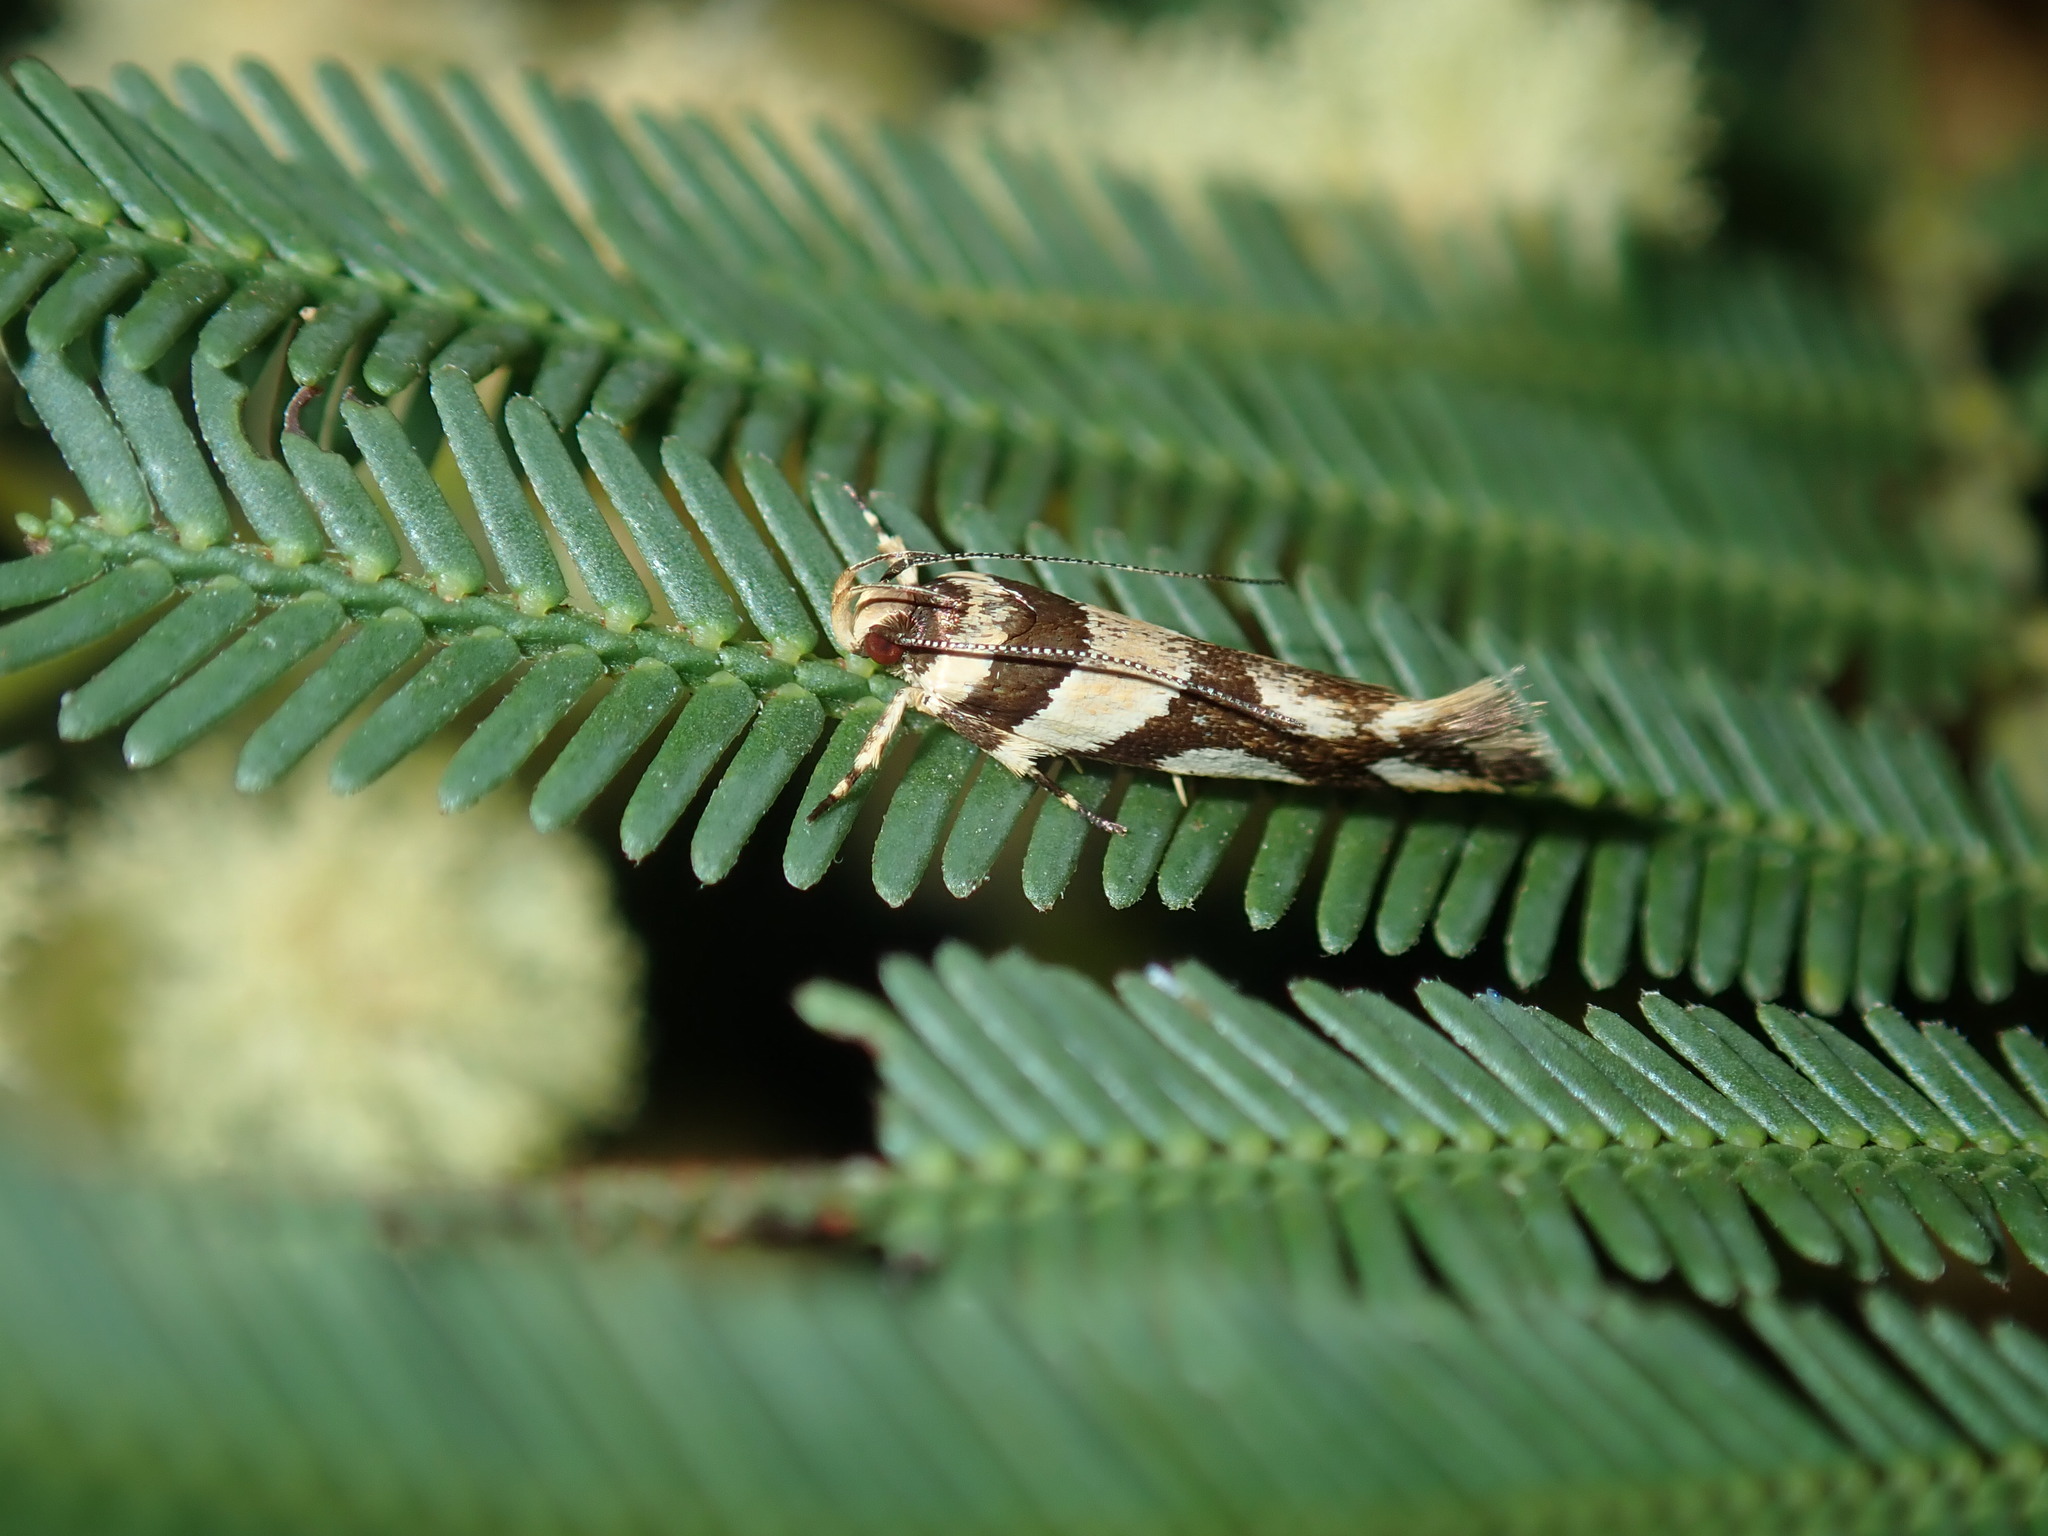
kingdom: Animalia
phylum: Arthropoda
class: Insecta
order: Lepidoptera
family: Cosmopterigidae
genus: Macrobathra
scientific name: Macrobathra desmotoma
